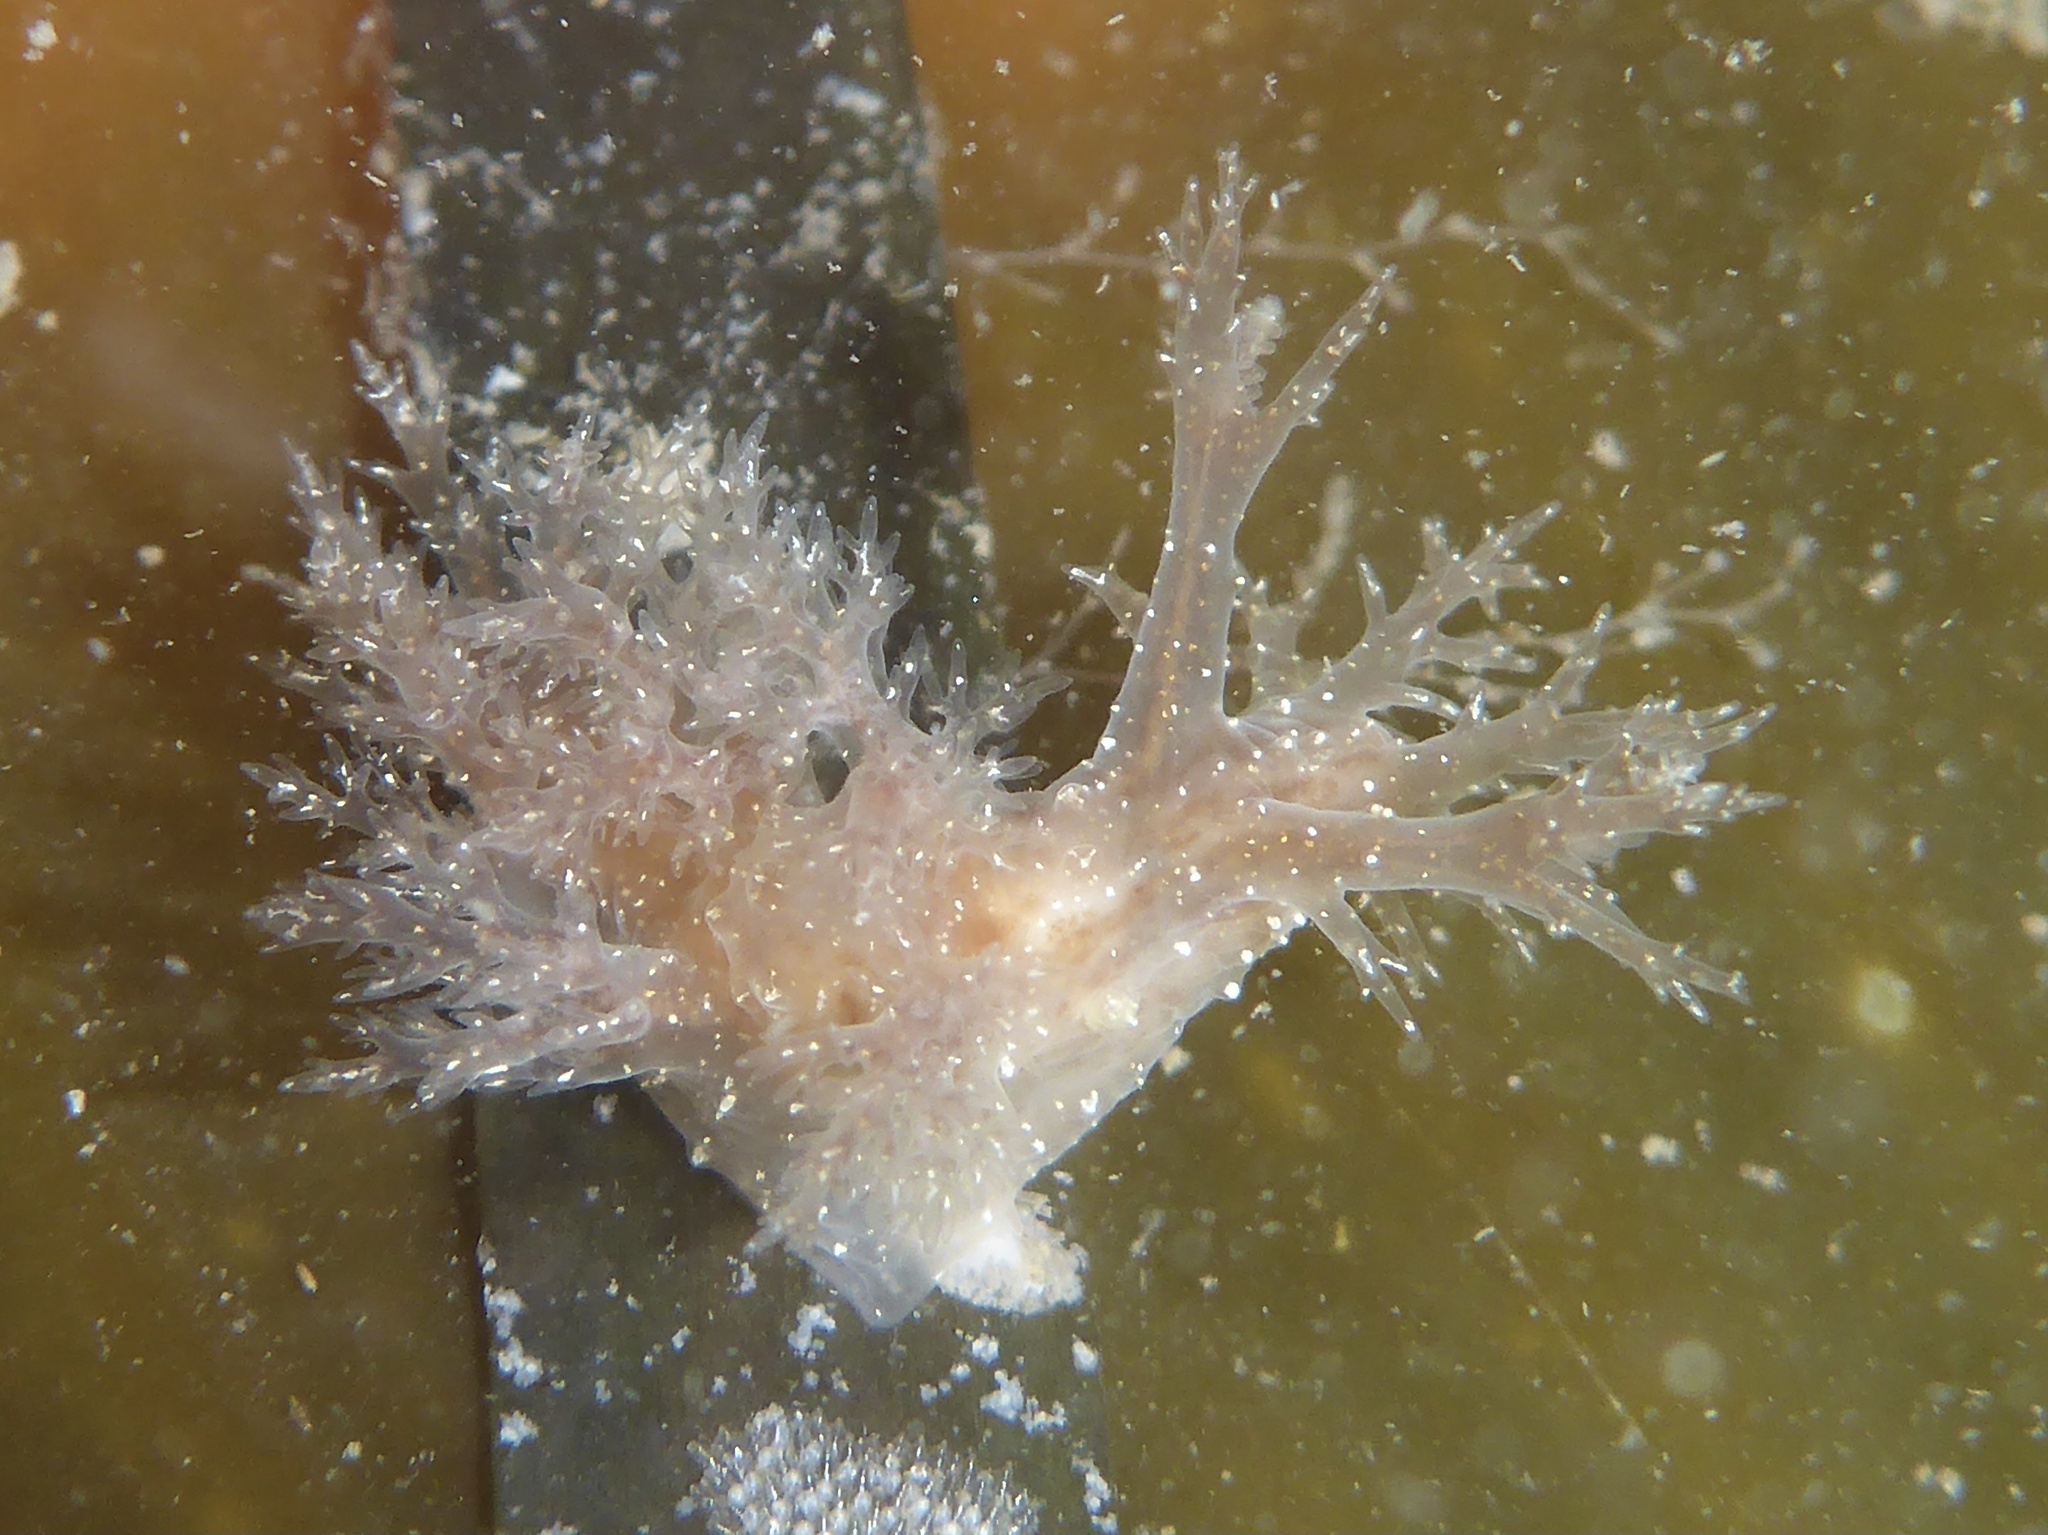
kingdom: Animalia
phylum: Mollusca
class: Gastropoda
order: Nudibranchia
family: Dendronotidae
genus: Dendronotus
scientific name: Dendronotus venustus
